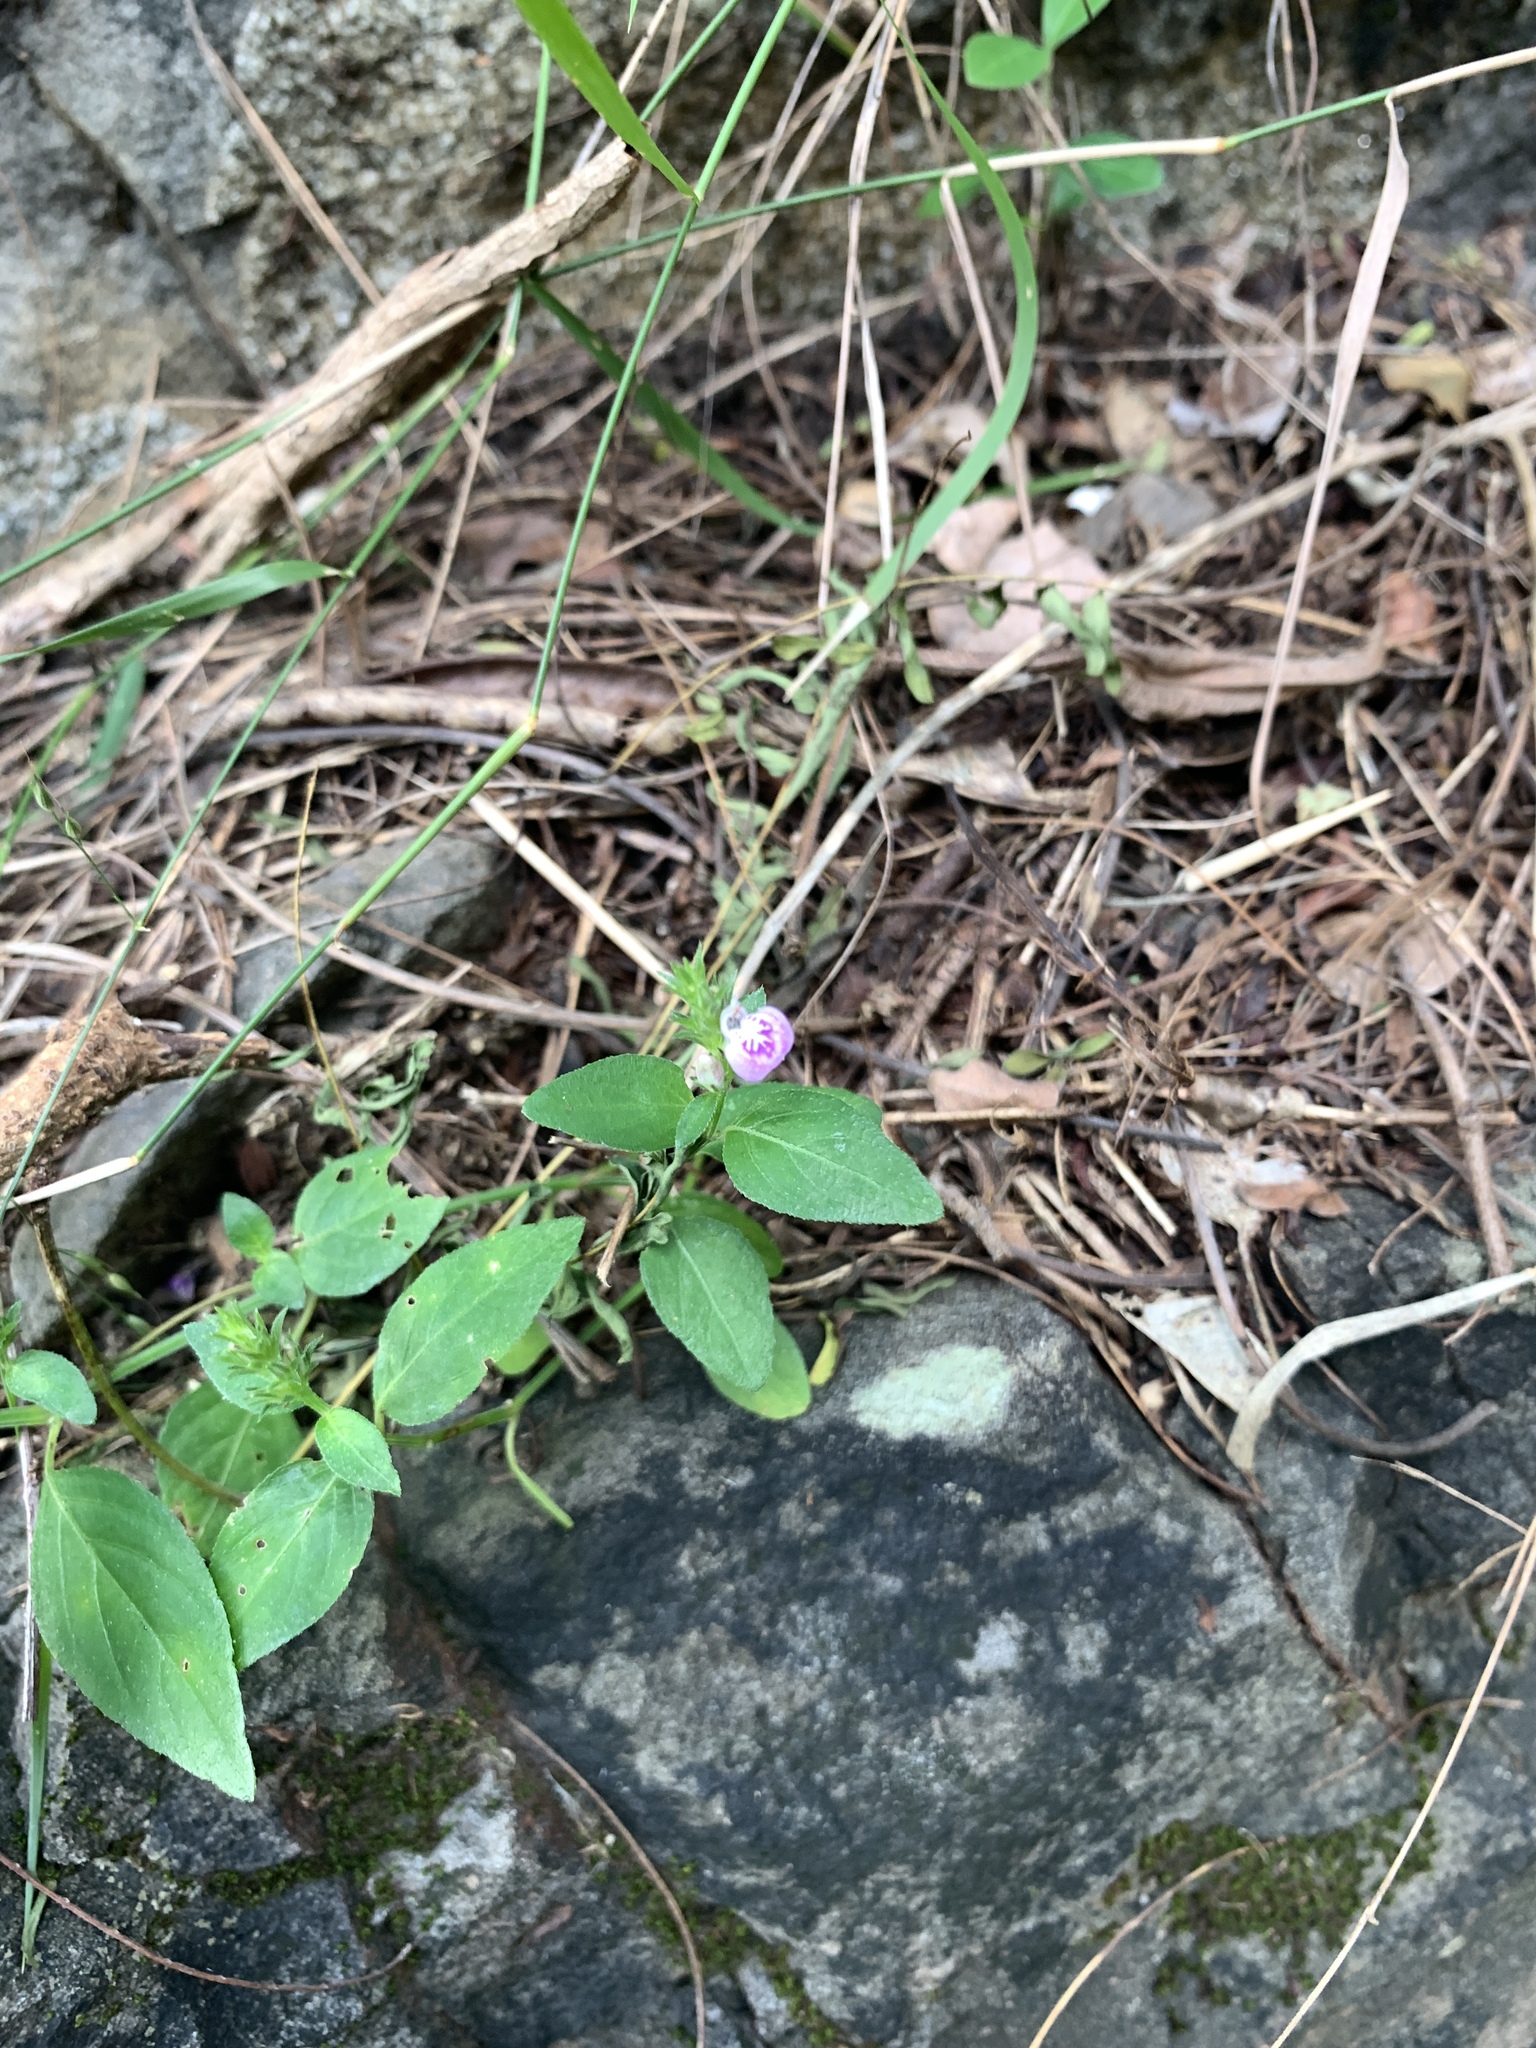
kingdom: Plantae
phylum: Tracheophyta
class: Magnoliopsida
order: Lamiales
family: Acanthaceae
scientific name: Acanthaceae
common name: Acanthaceae
